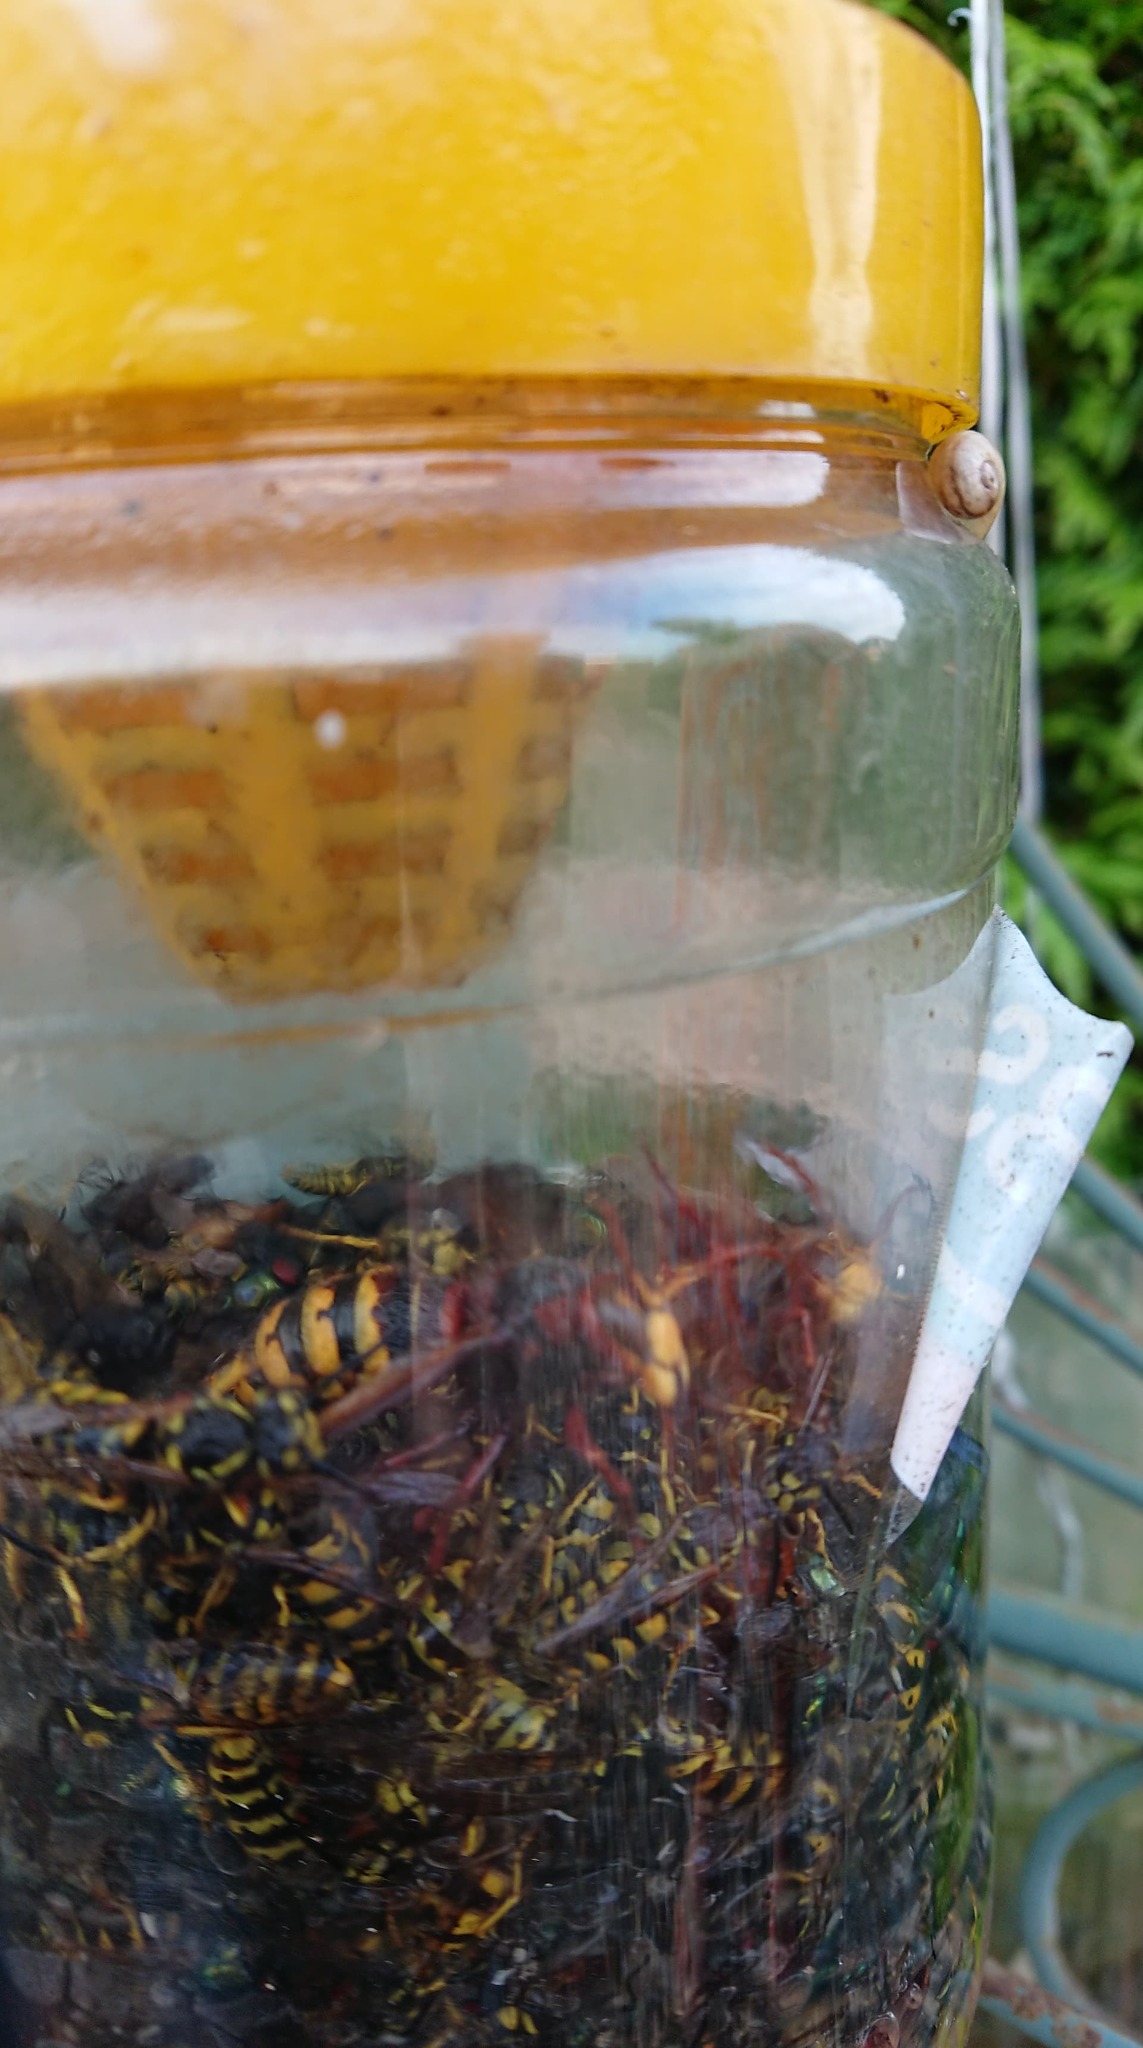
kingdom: Animalia
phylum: Arthropoda
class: Insecta
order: Hymenoptera
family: Vespidae
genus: Vespa
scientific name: Vespa crabro
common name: Hornet
